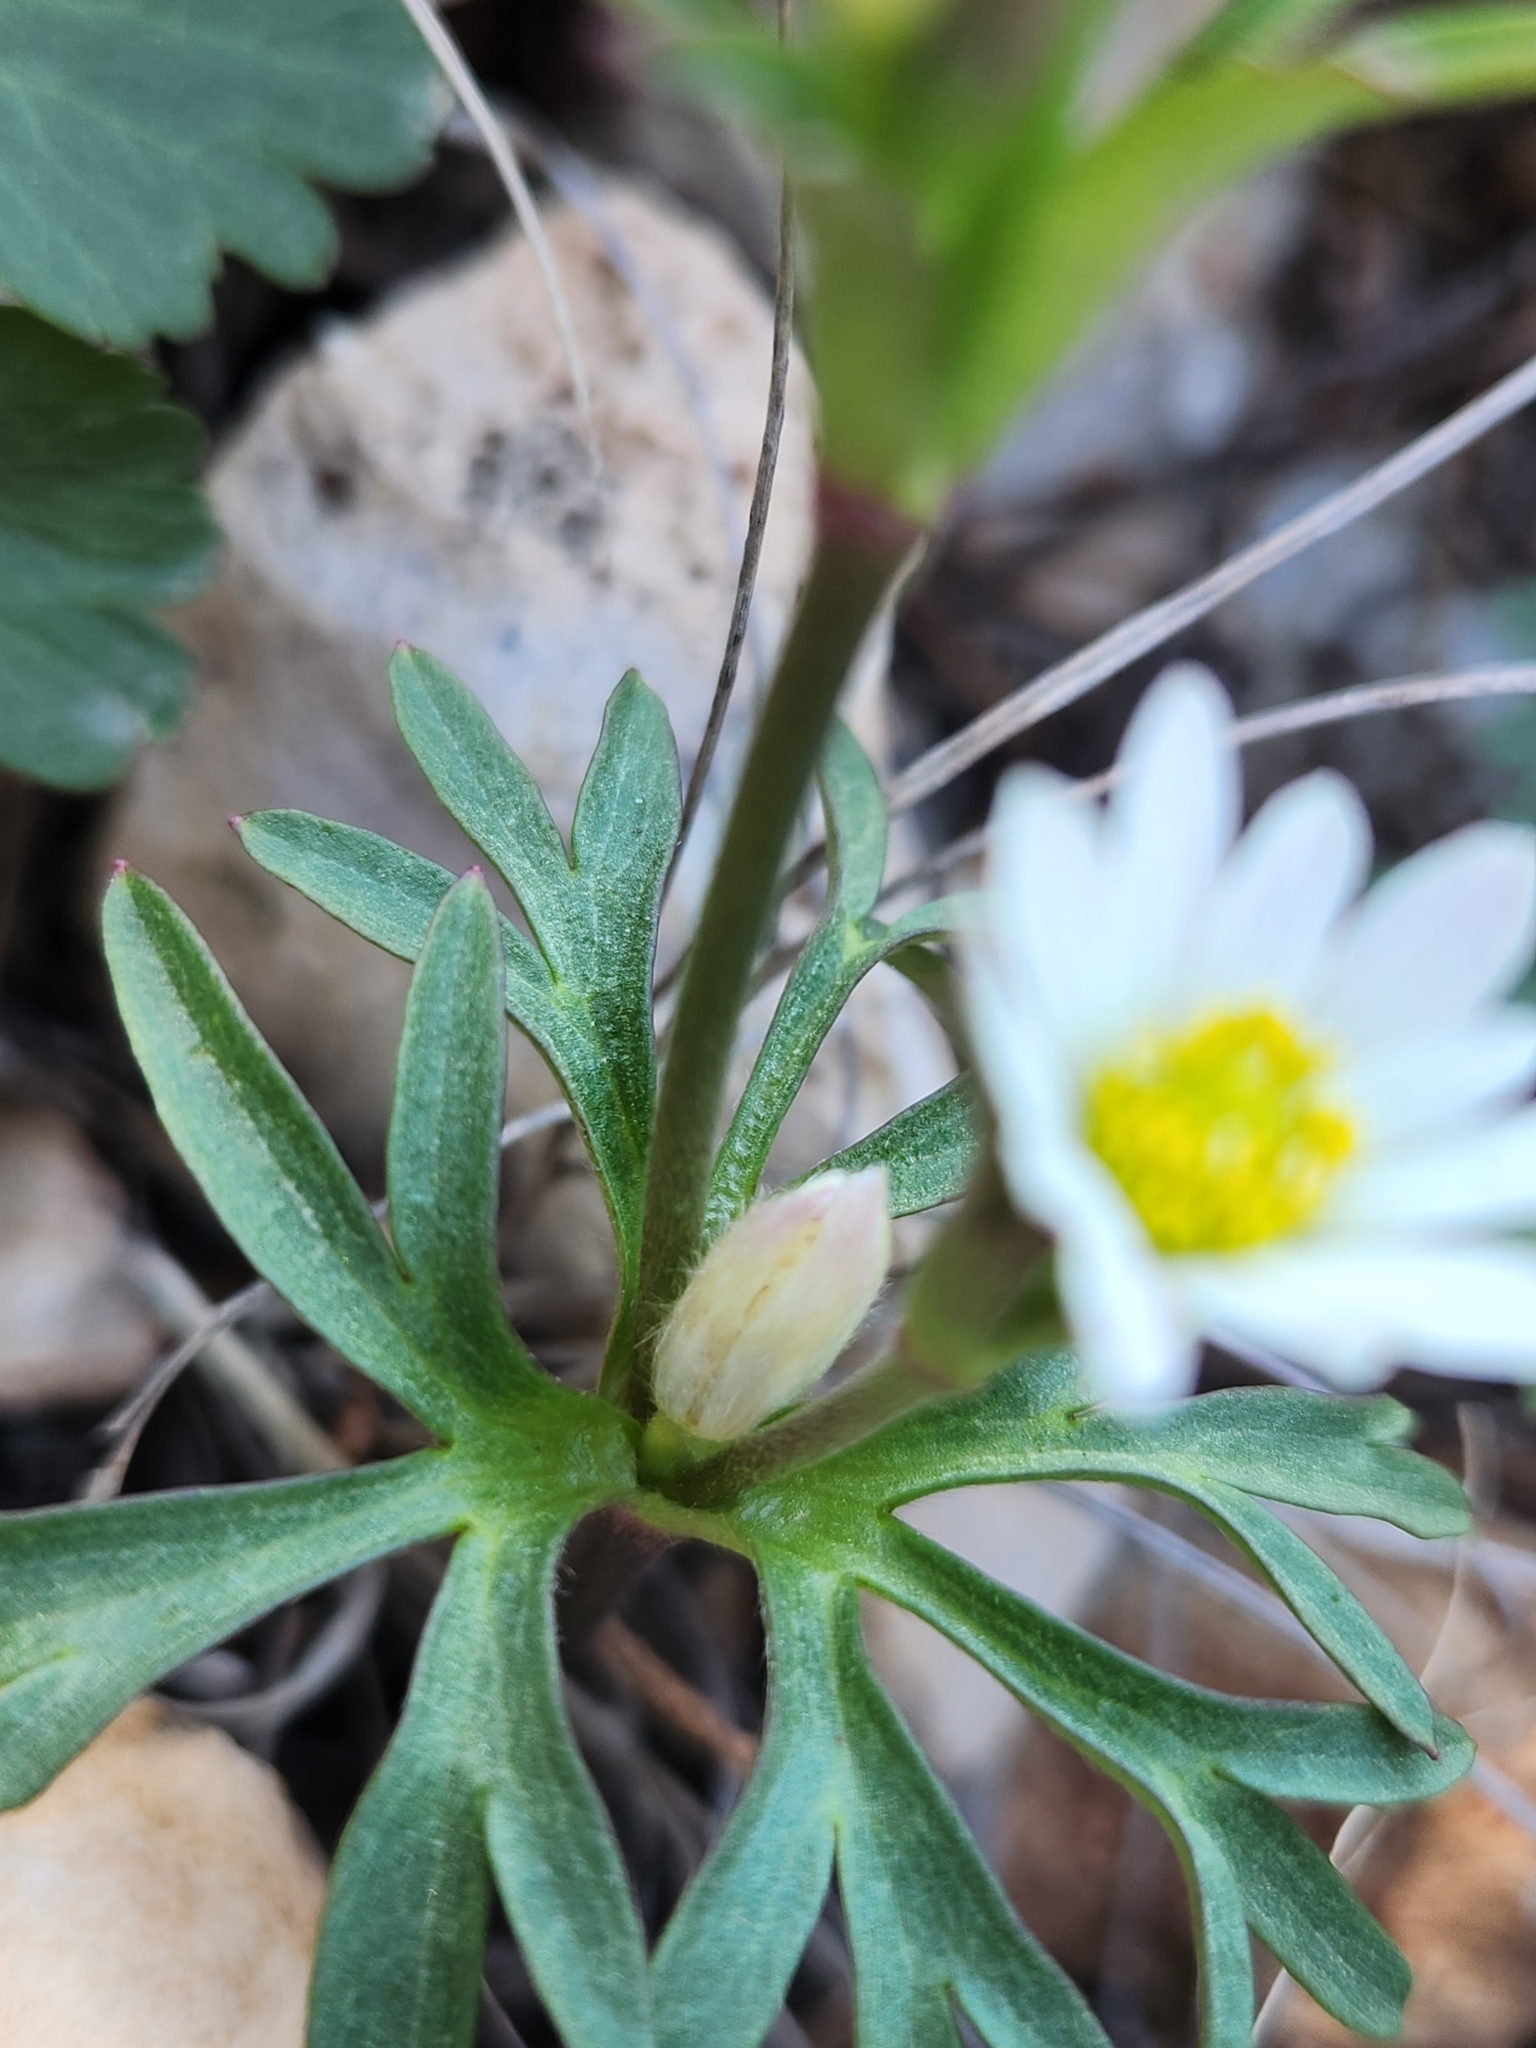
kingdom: Plantae
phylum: Tracheophyta
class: Magnoliopsida
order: Ranunculales
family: Ranunculaceae
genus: Anemone
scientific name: Anemone edwardsiana
